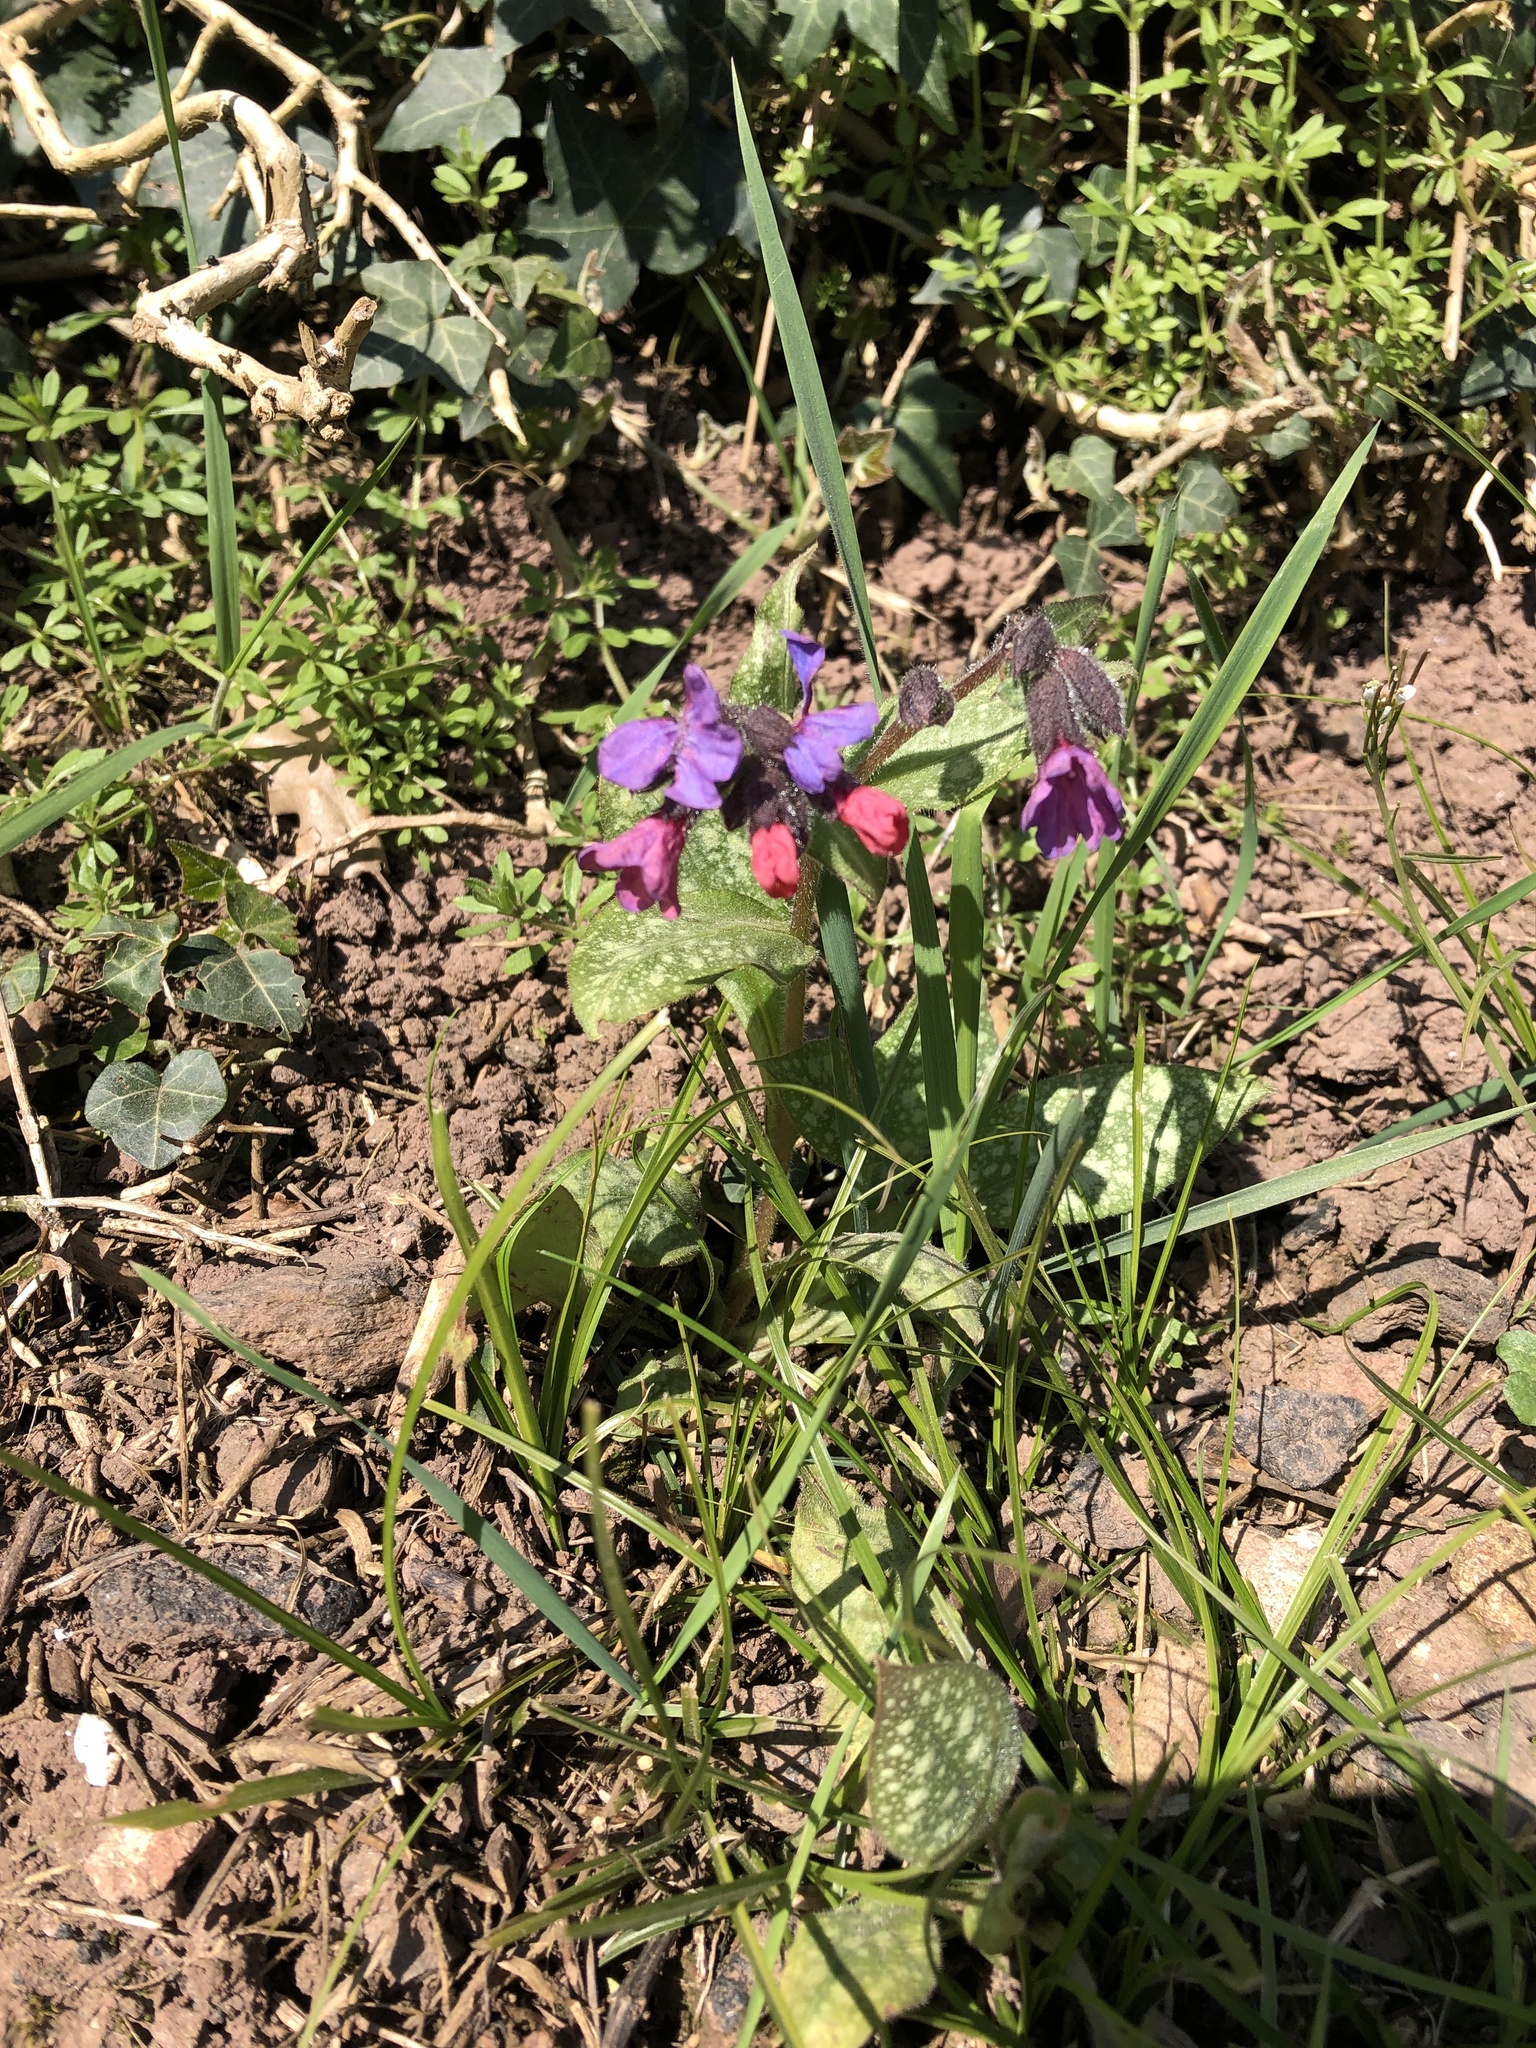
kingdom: Plantae
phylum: Tracheophyta
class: Magnoliopsida
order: Boraginales
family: Boraginaceae
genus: Pulmonaria
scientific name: Pulmonaria officinalis
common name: Lungwort
